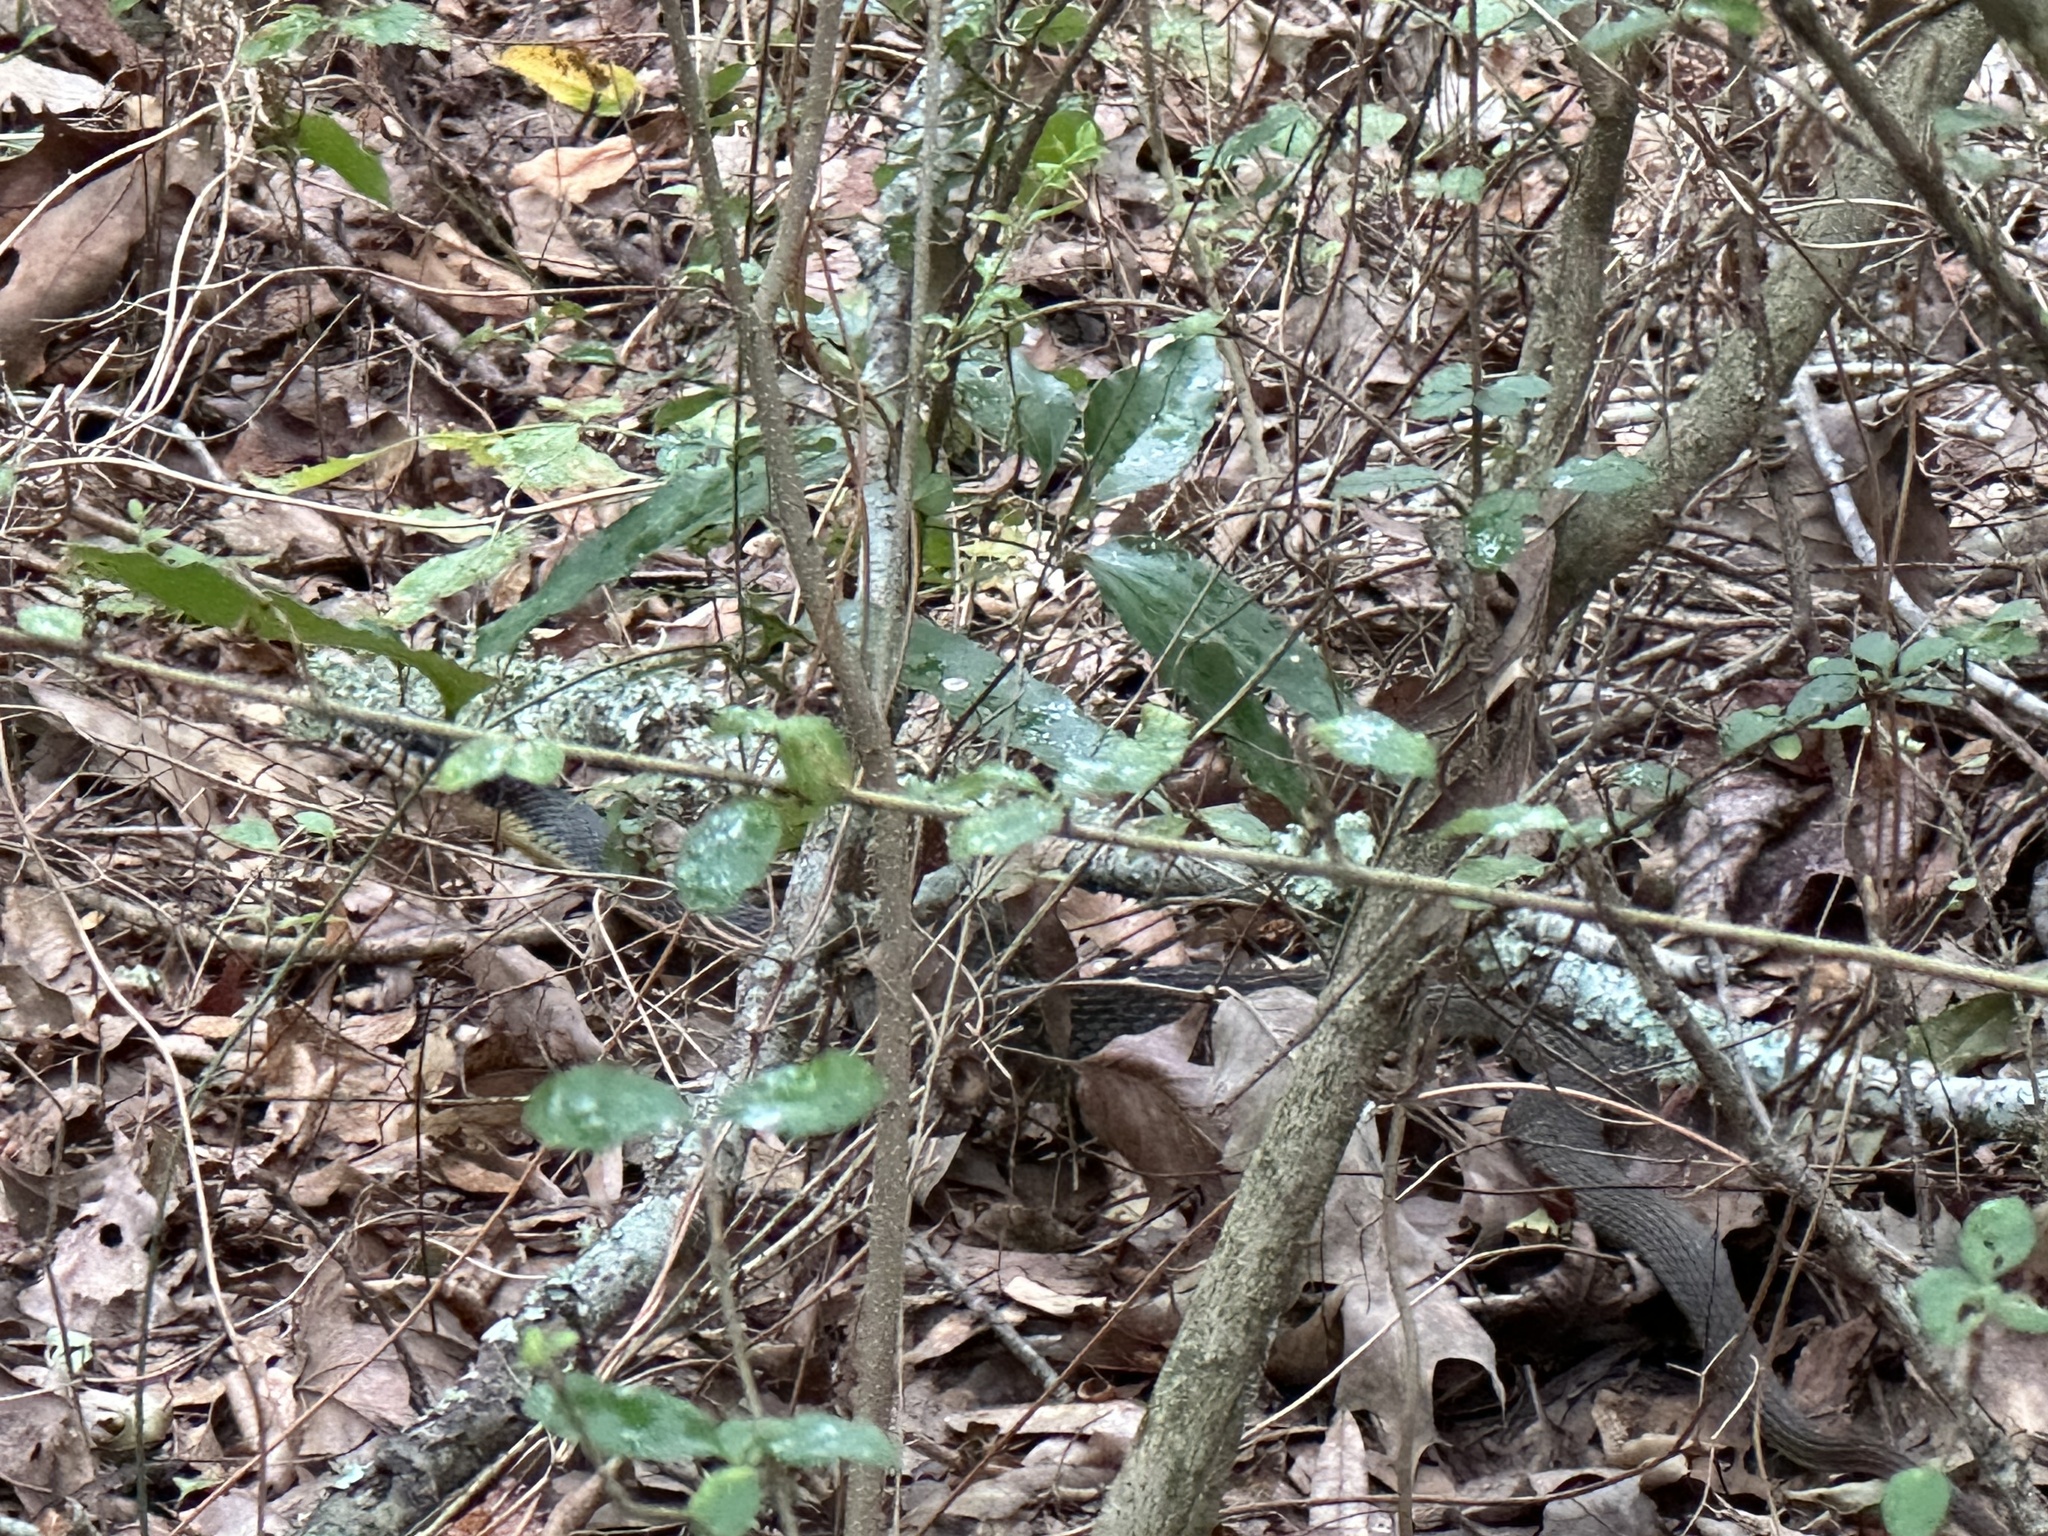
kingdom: Animalia
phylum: Chordata
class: Squamata
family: Colubridae
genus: Nerodia
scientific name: Nerodia erythrogaster
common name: Plainbelly water snake
